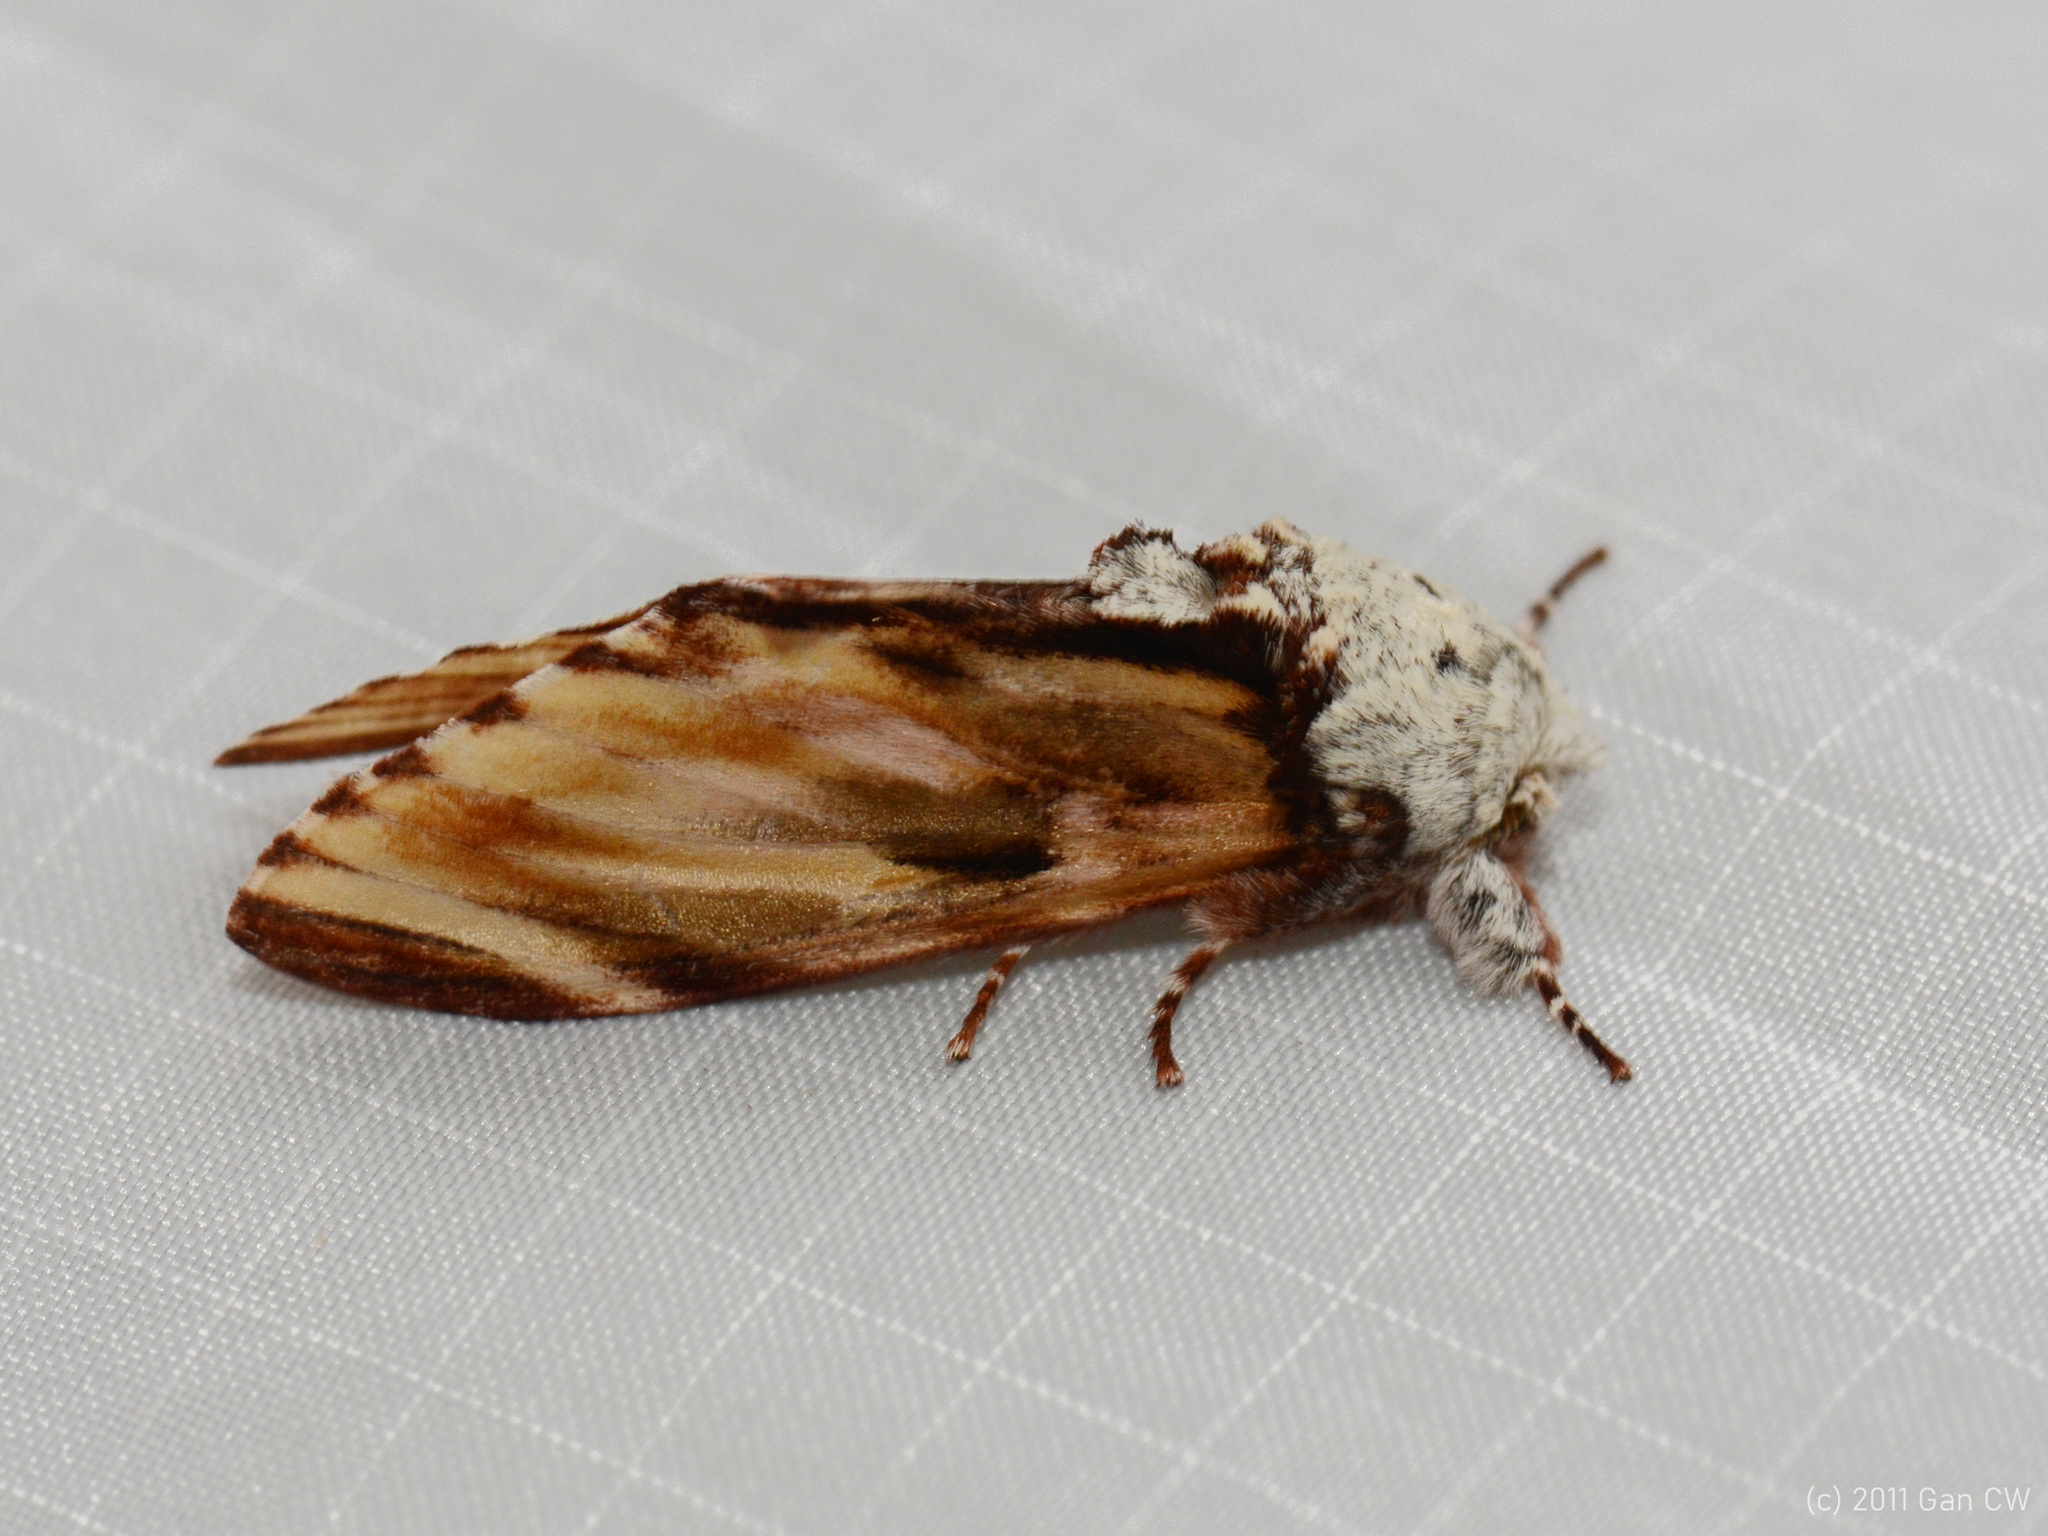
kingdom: Animalia
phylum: Arthropoda
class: Insecta
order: Lepidoptera
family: Notodontidae
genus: Neopheosia
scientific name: Neopheosia fasciata
